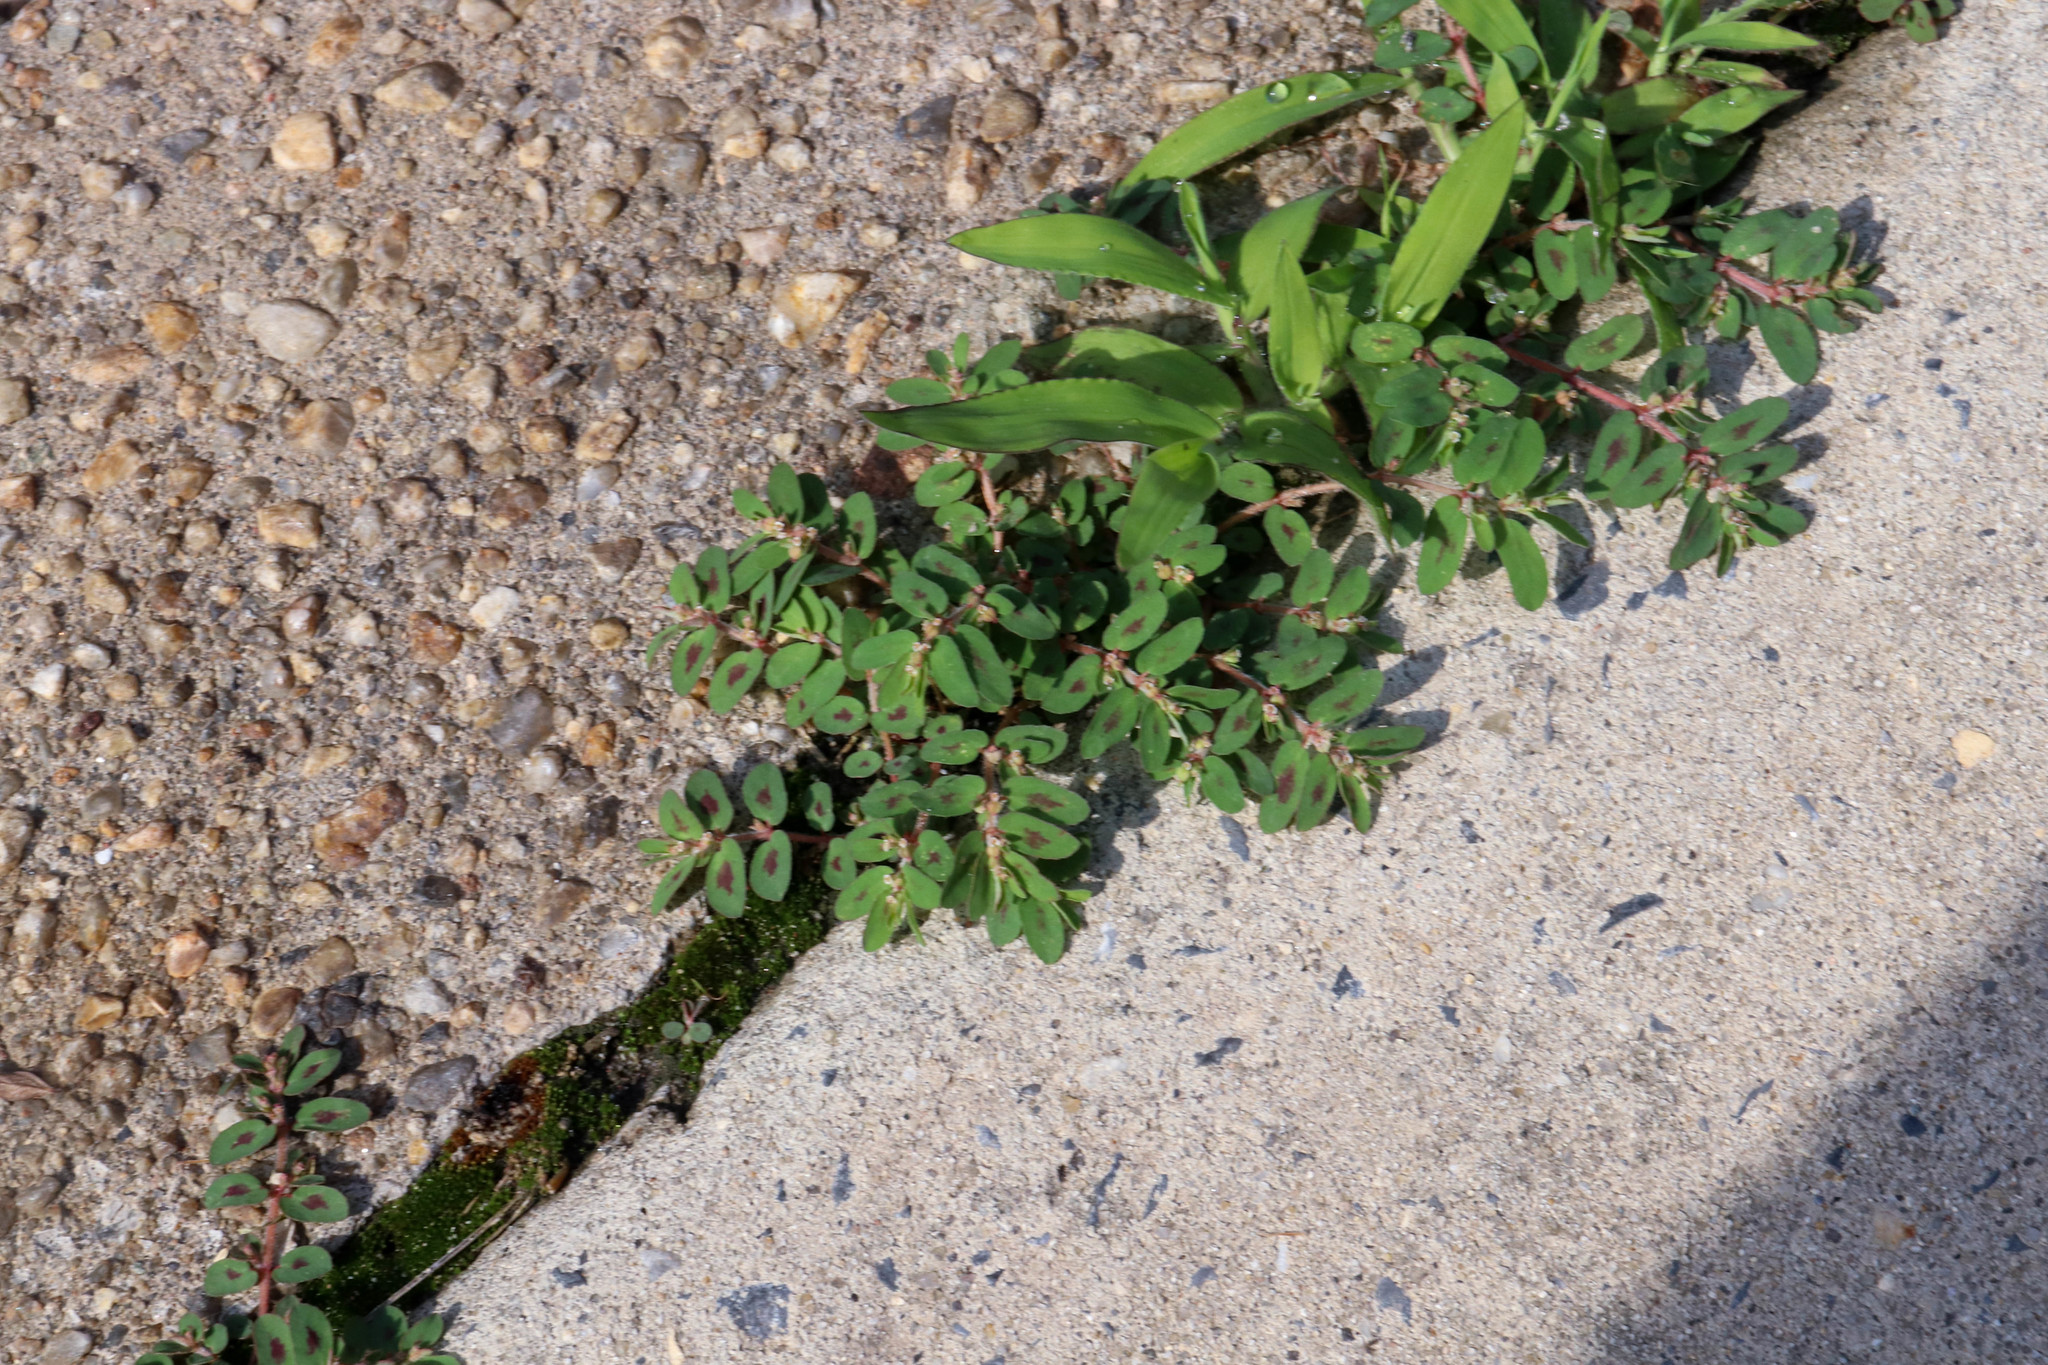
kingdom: Plantae
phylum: Tracheophyta
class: Magnoliopsida
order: Malpighiales
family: Euphorbiaceae
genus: Euphorbia
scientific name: Euphorbia maculata
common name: Spotted spurge
